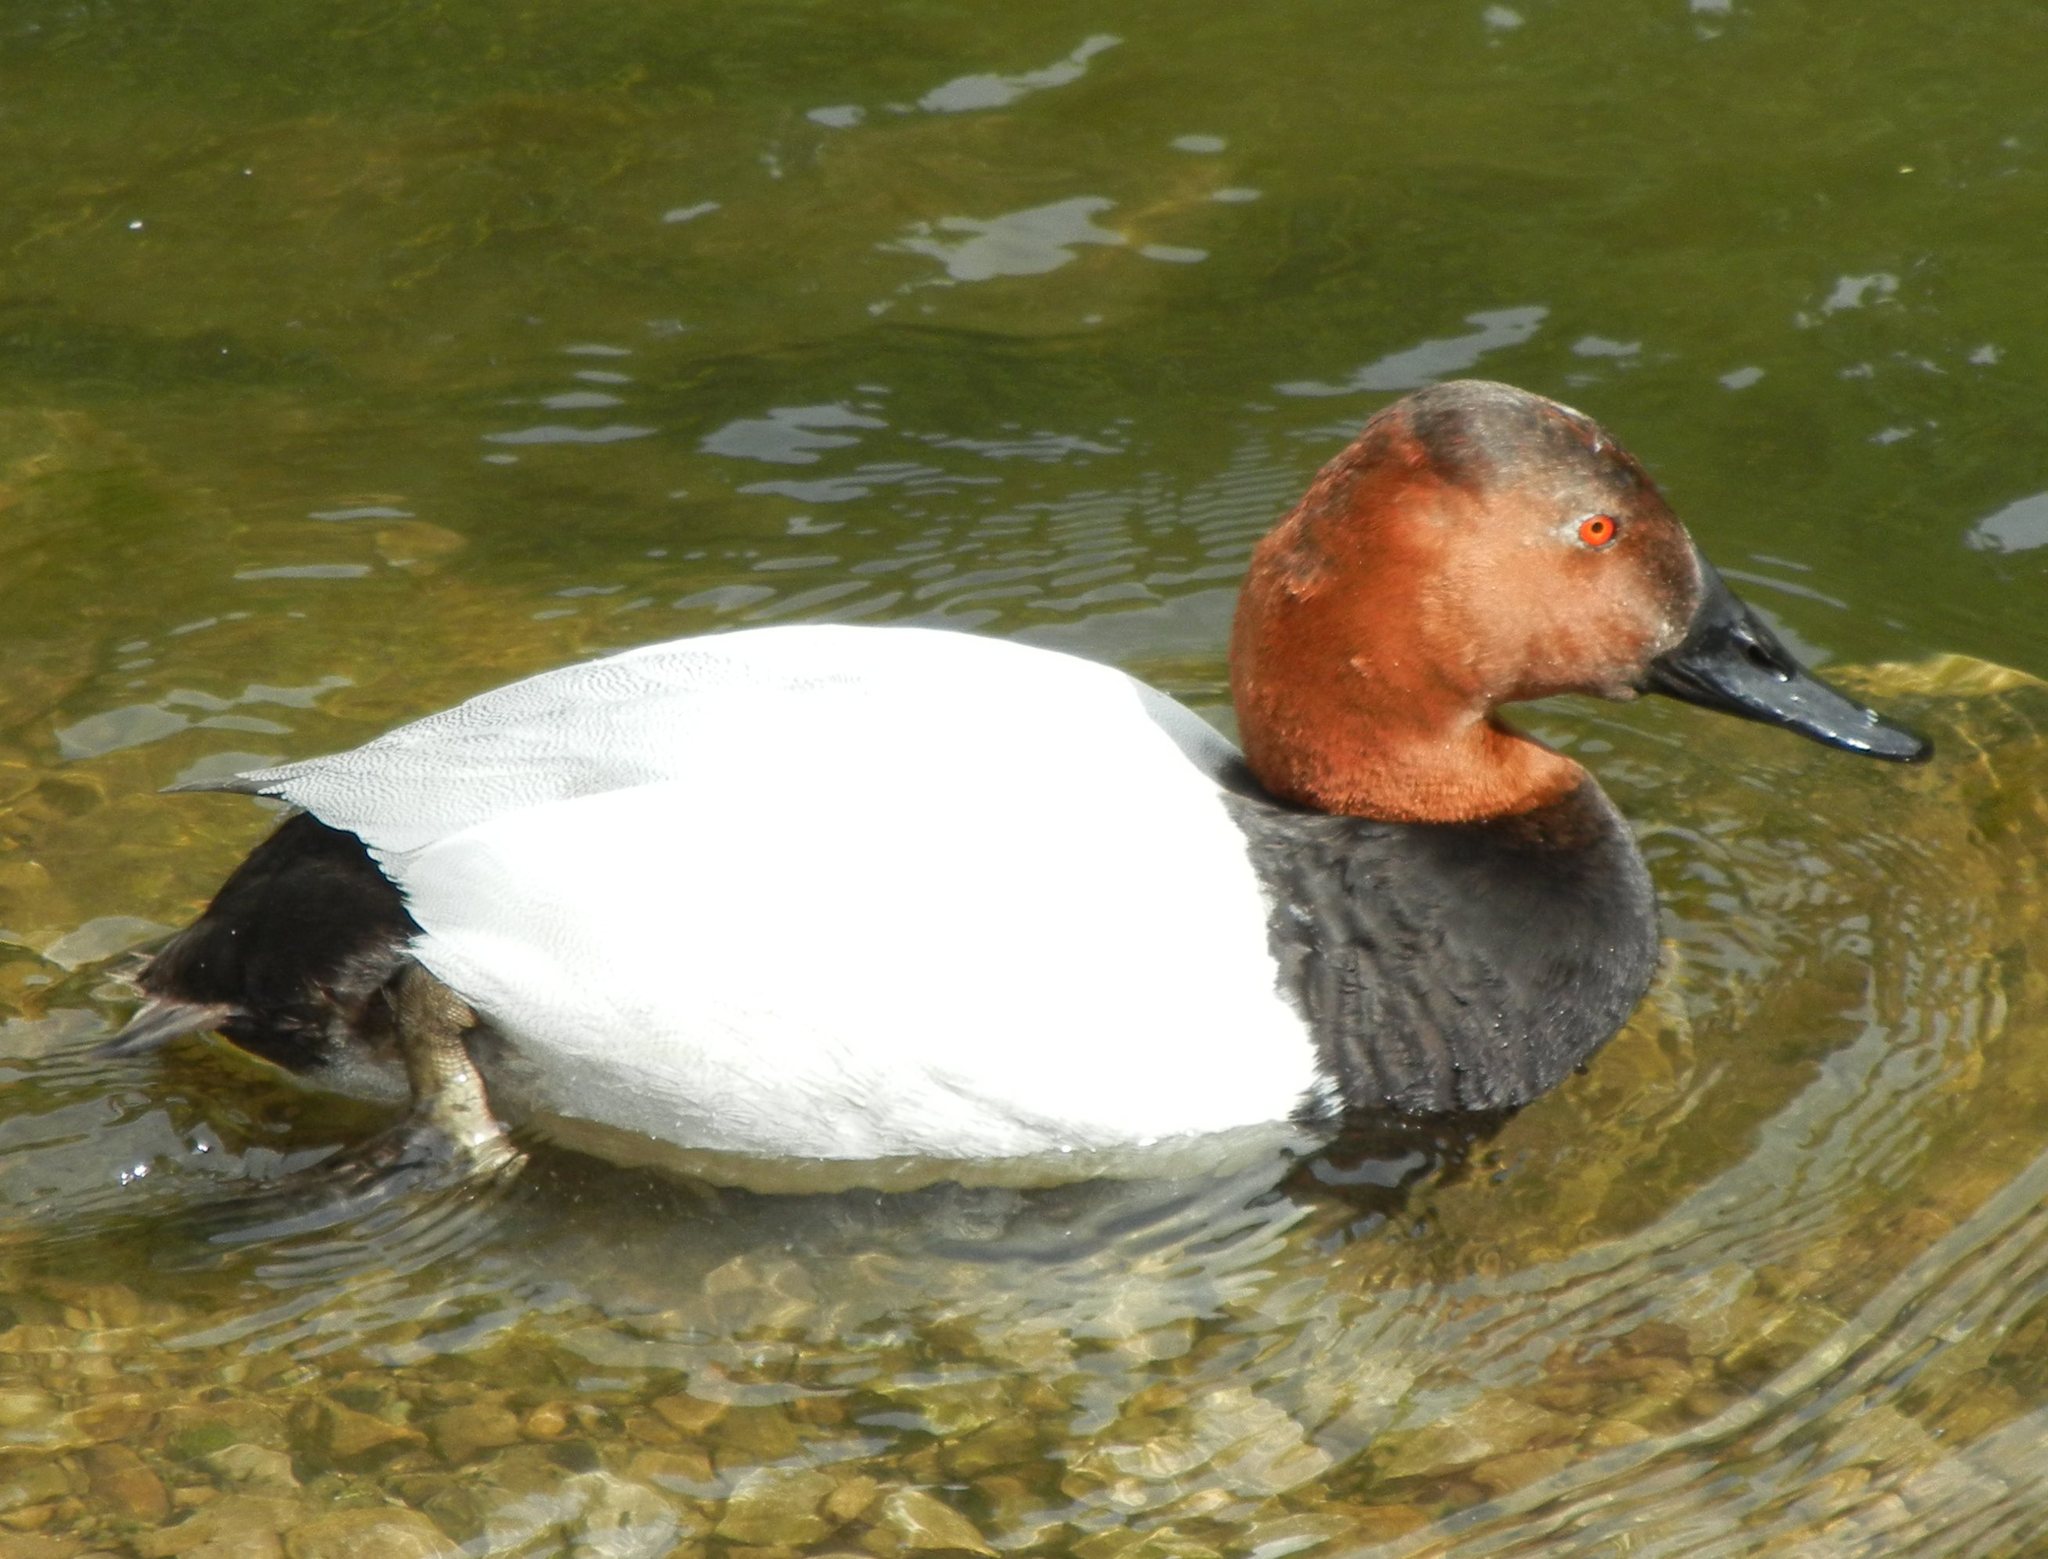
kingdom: Animalia
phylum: Chordata
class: Aves
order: Anseriformes
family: Anatidae
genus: Aythya
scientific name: Aythya ferina
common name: Common pochard
